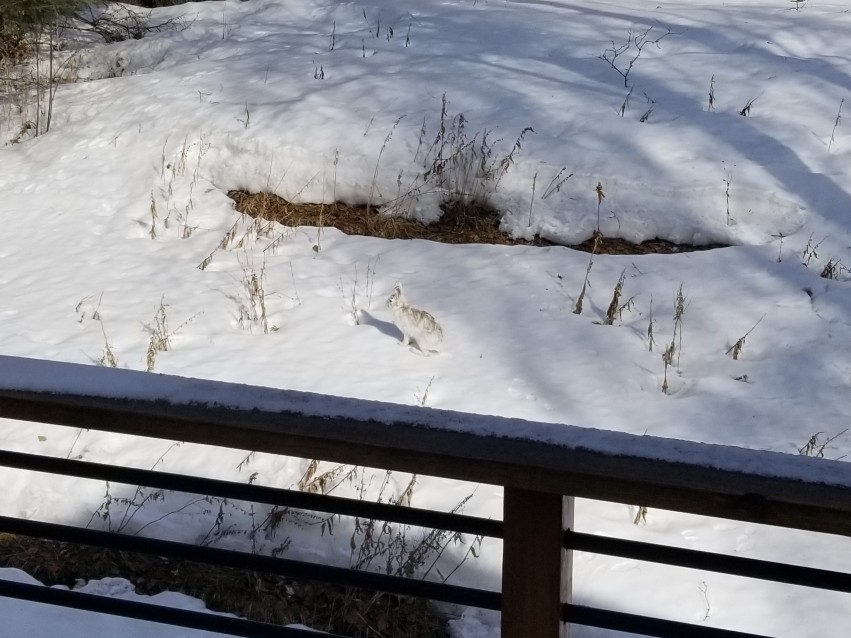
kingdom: Animalia
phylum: Chordata
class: Mammalia
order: Lagomorpha
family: Leporidae
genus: Lepus
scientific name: Lepus americanus
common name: Snowshoe hare
